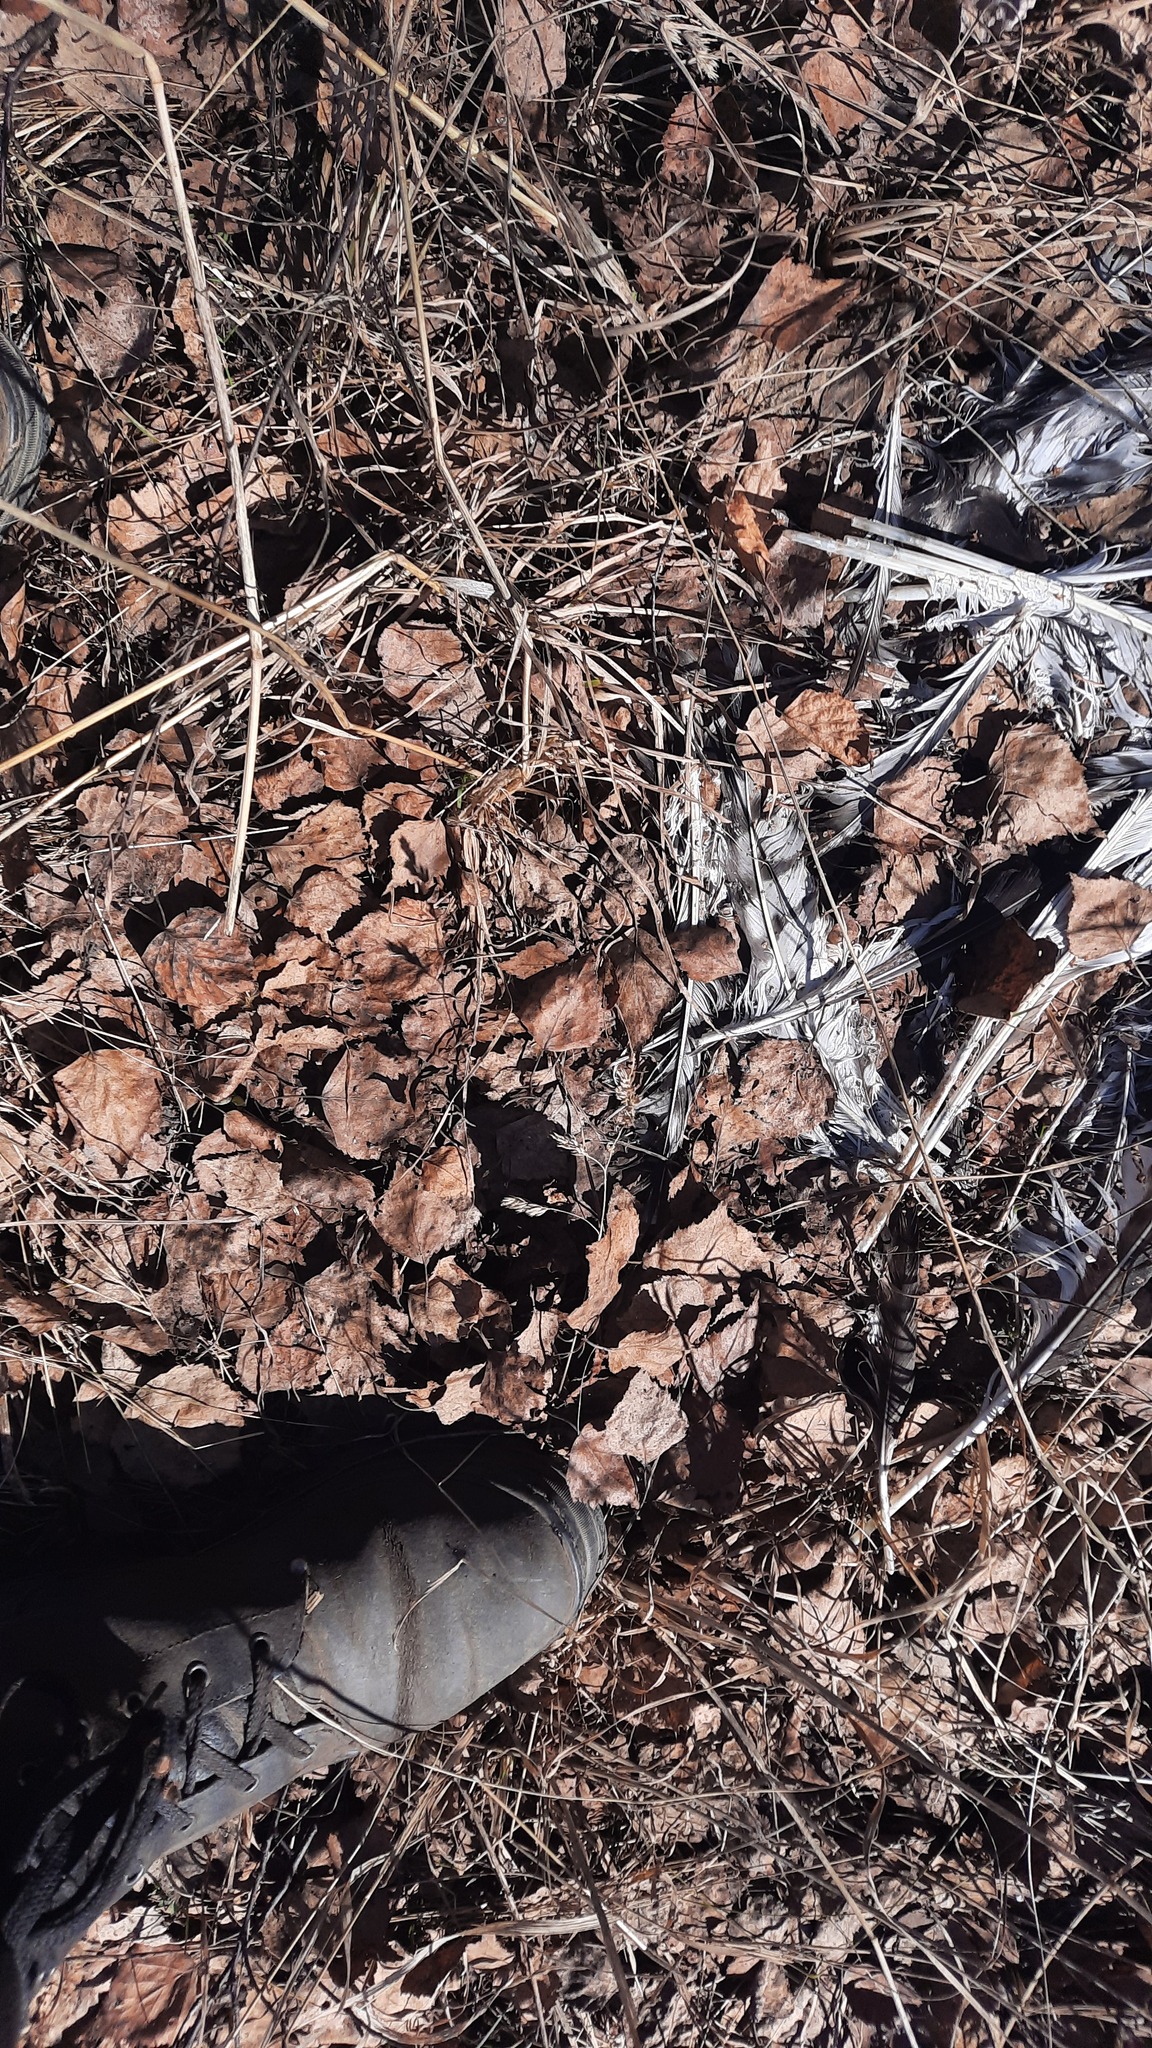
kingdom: Animalia
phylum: Chordata
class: Aves
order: Accipitriformes
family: Accipitridae
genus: Buteo
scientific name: Buteo lagopus
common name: Rough-legged buzzard
